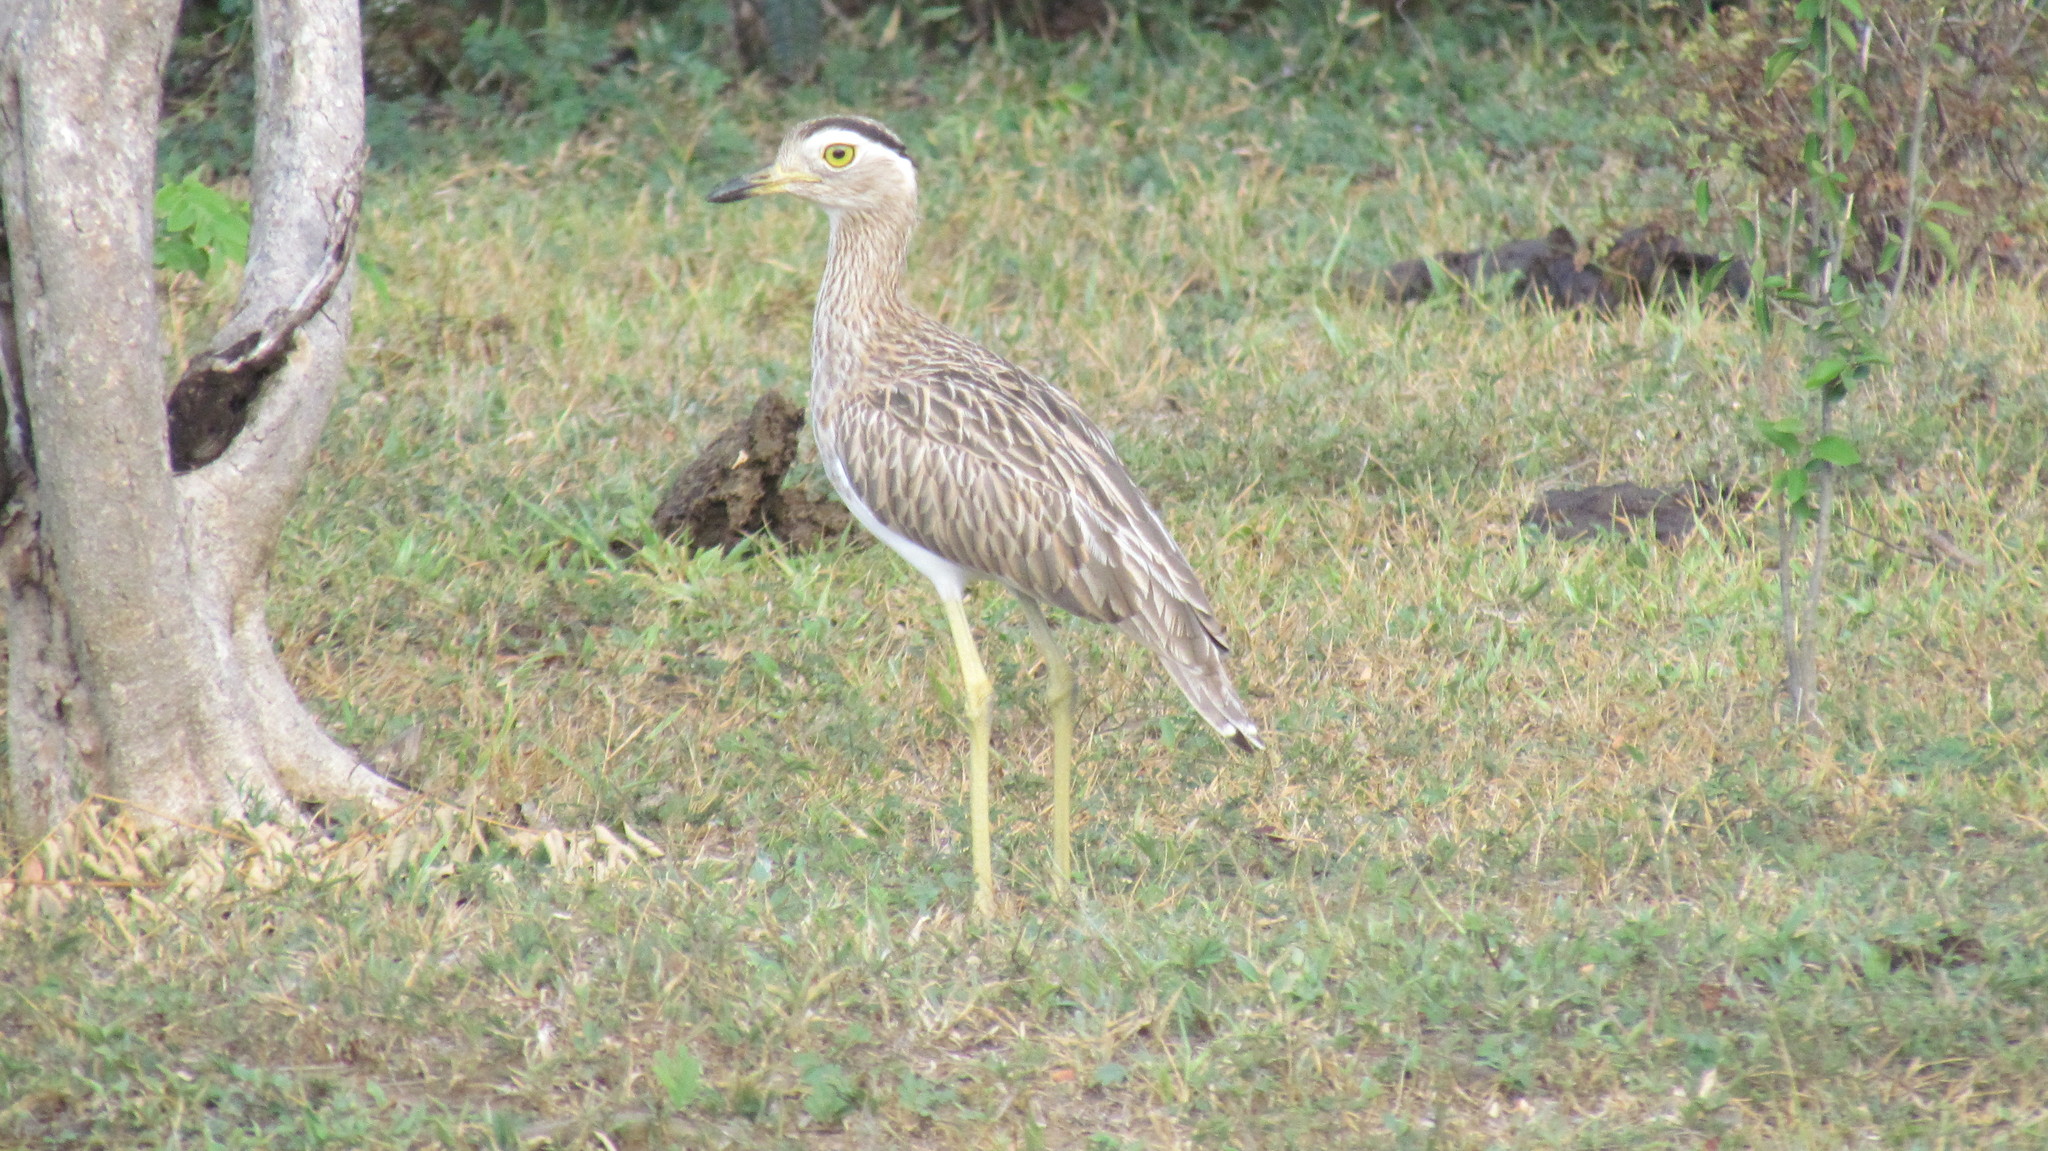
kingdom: Animalia
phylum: Chordata
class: Aves
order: Charadriiformes
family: Burhinidae
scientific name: Burhinidae
